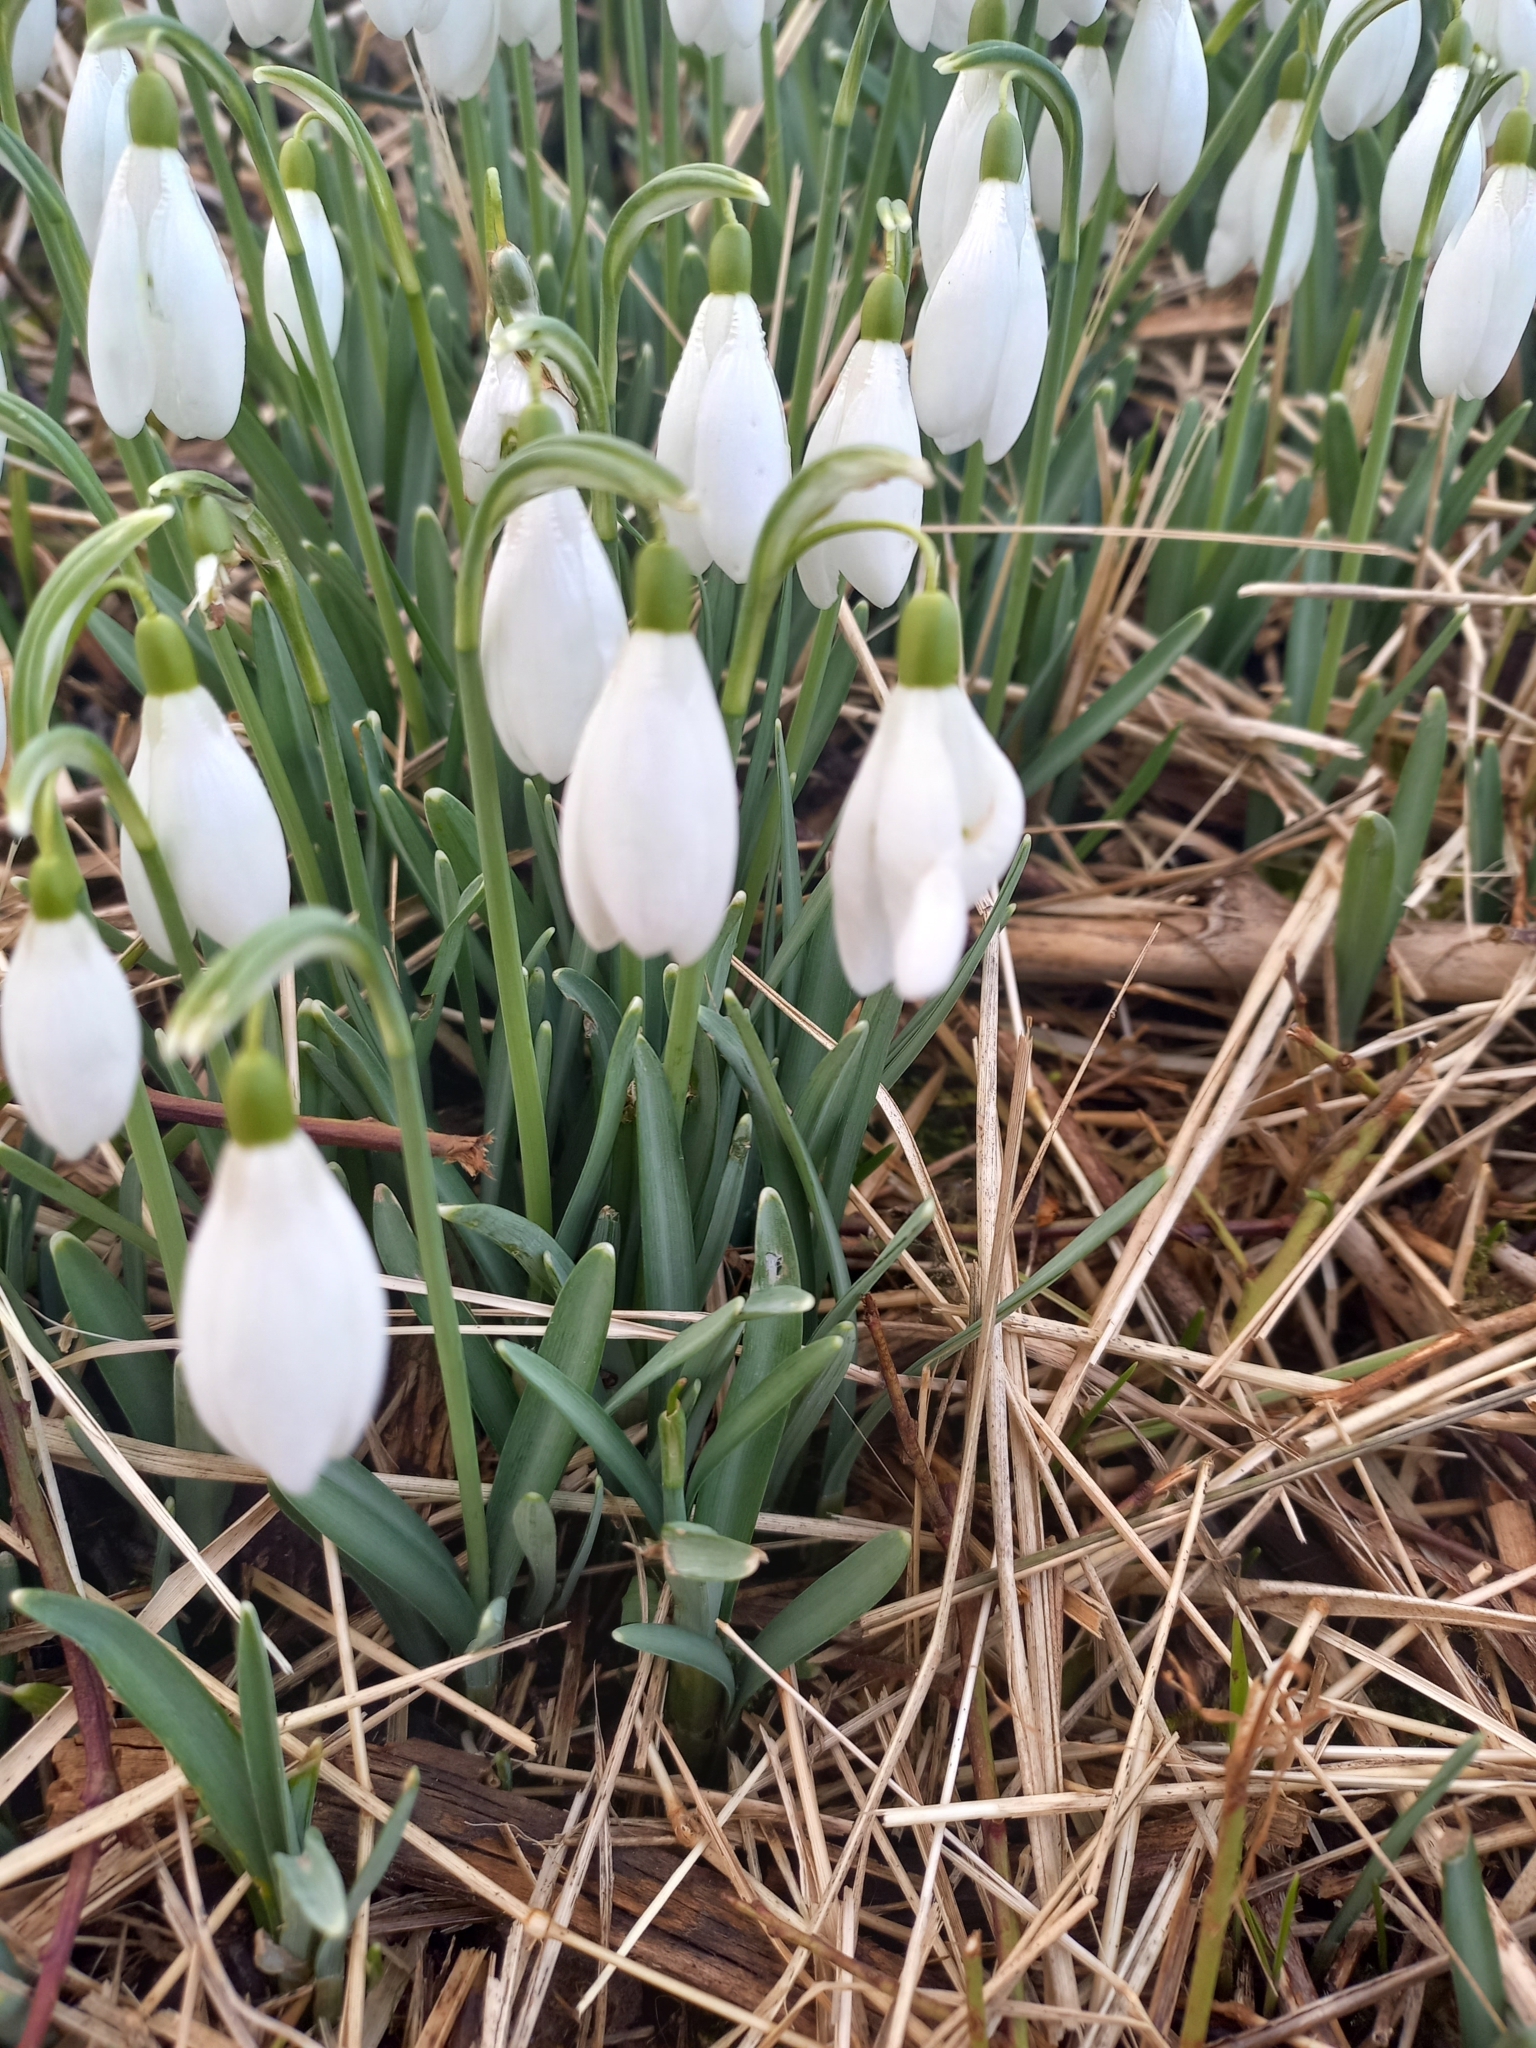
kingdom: Plantae
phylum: Tracheophyta
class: Liliopsida
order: Asparagales
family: Amaryllidaceae
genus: Galanthus
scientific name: Galanthus nivalis
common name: Snowdrop
